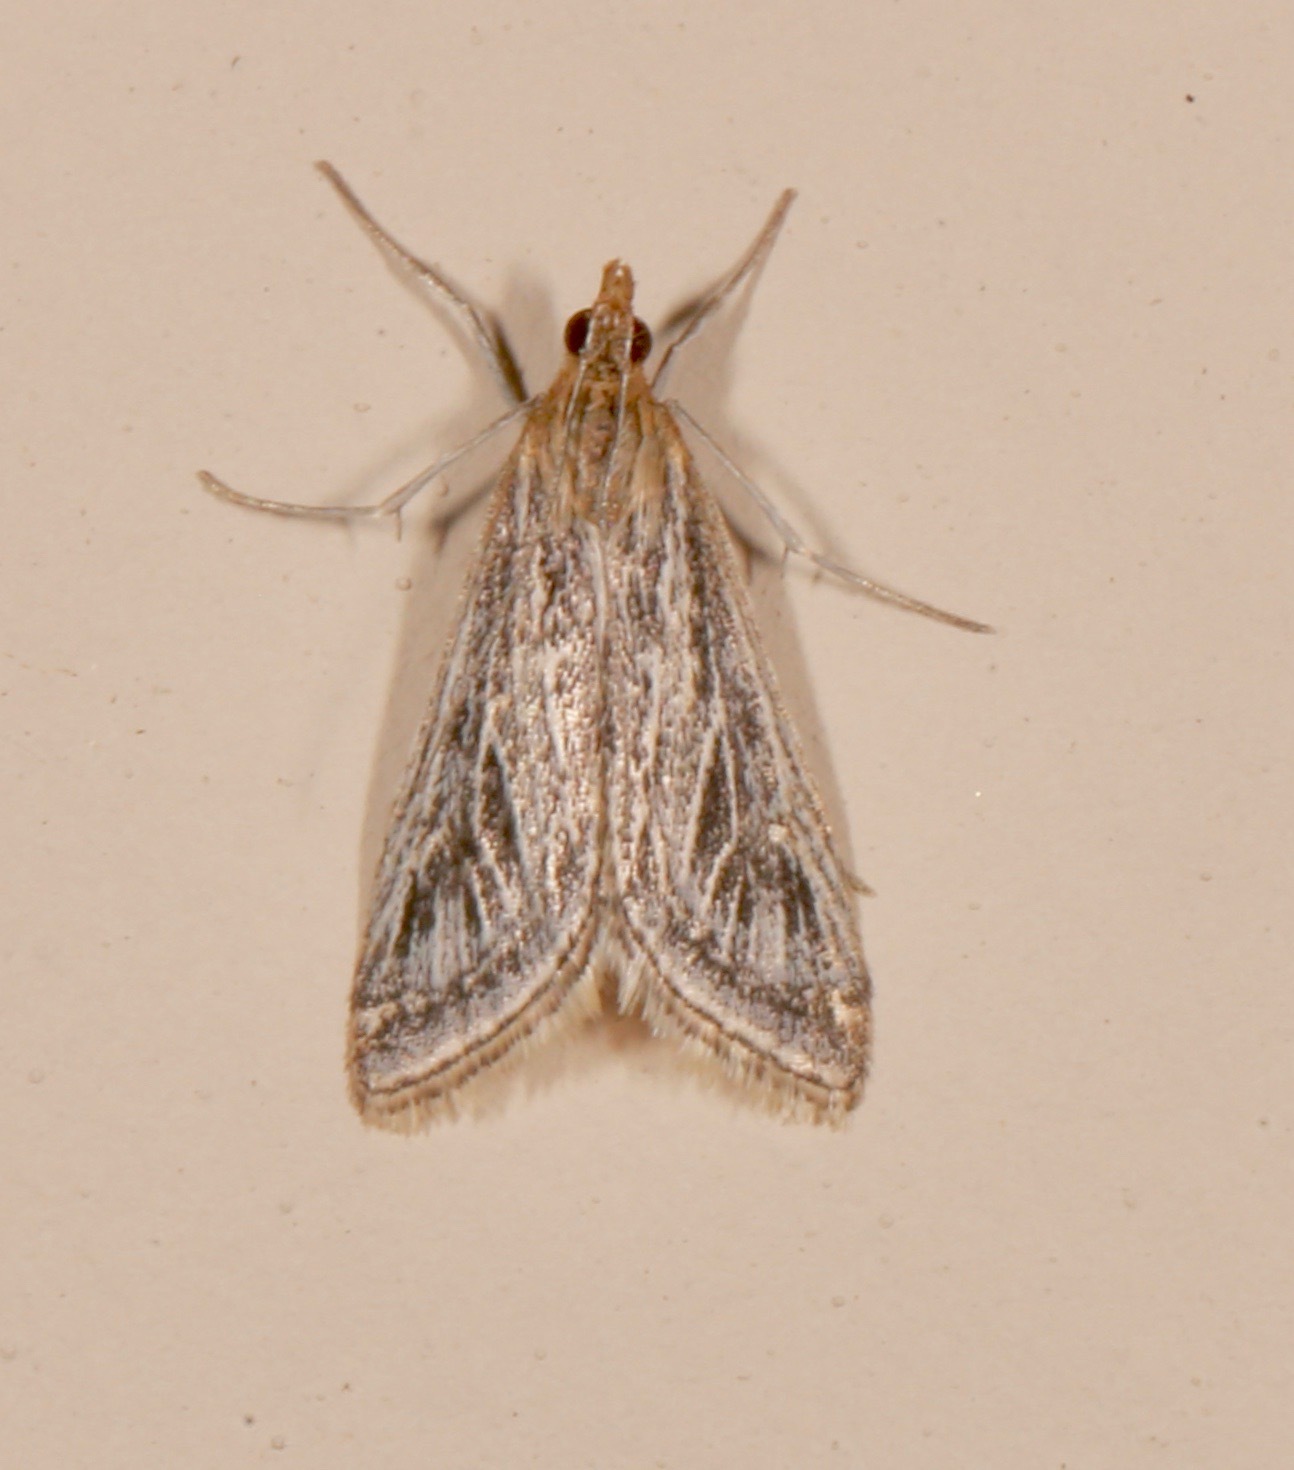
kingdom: Animalia
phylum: Arthropoda
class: Insecta
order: Lepidoptera
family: Crambidae
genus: Pyrausta
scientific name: Pyrausta linealis
